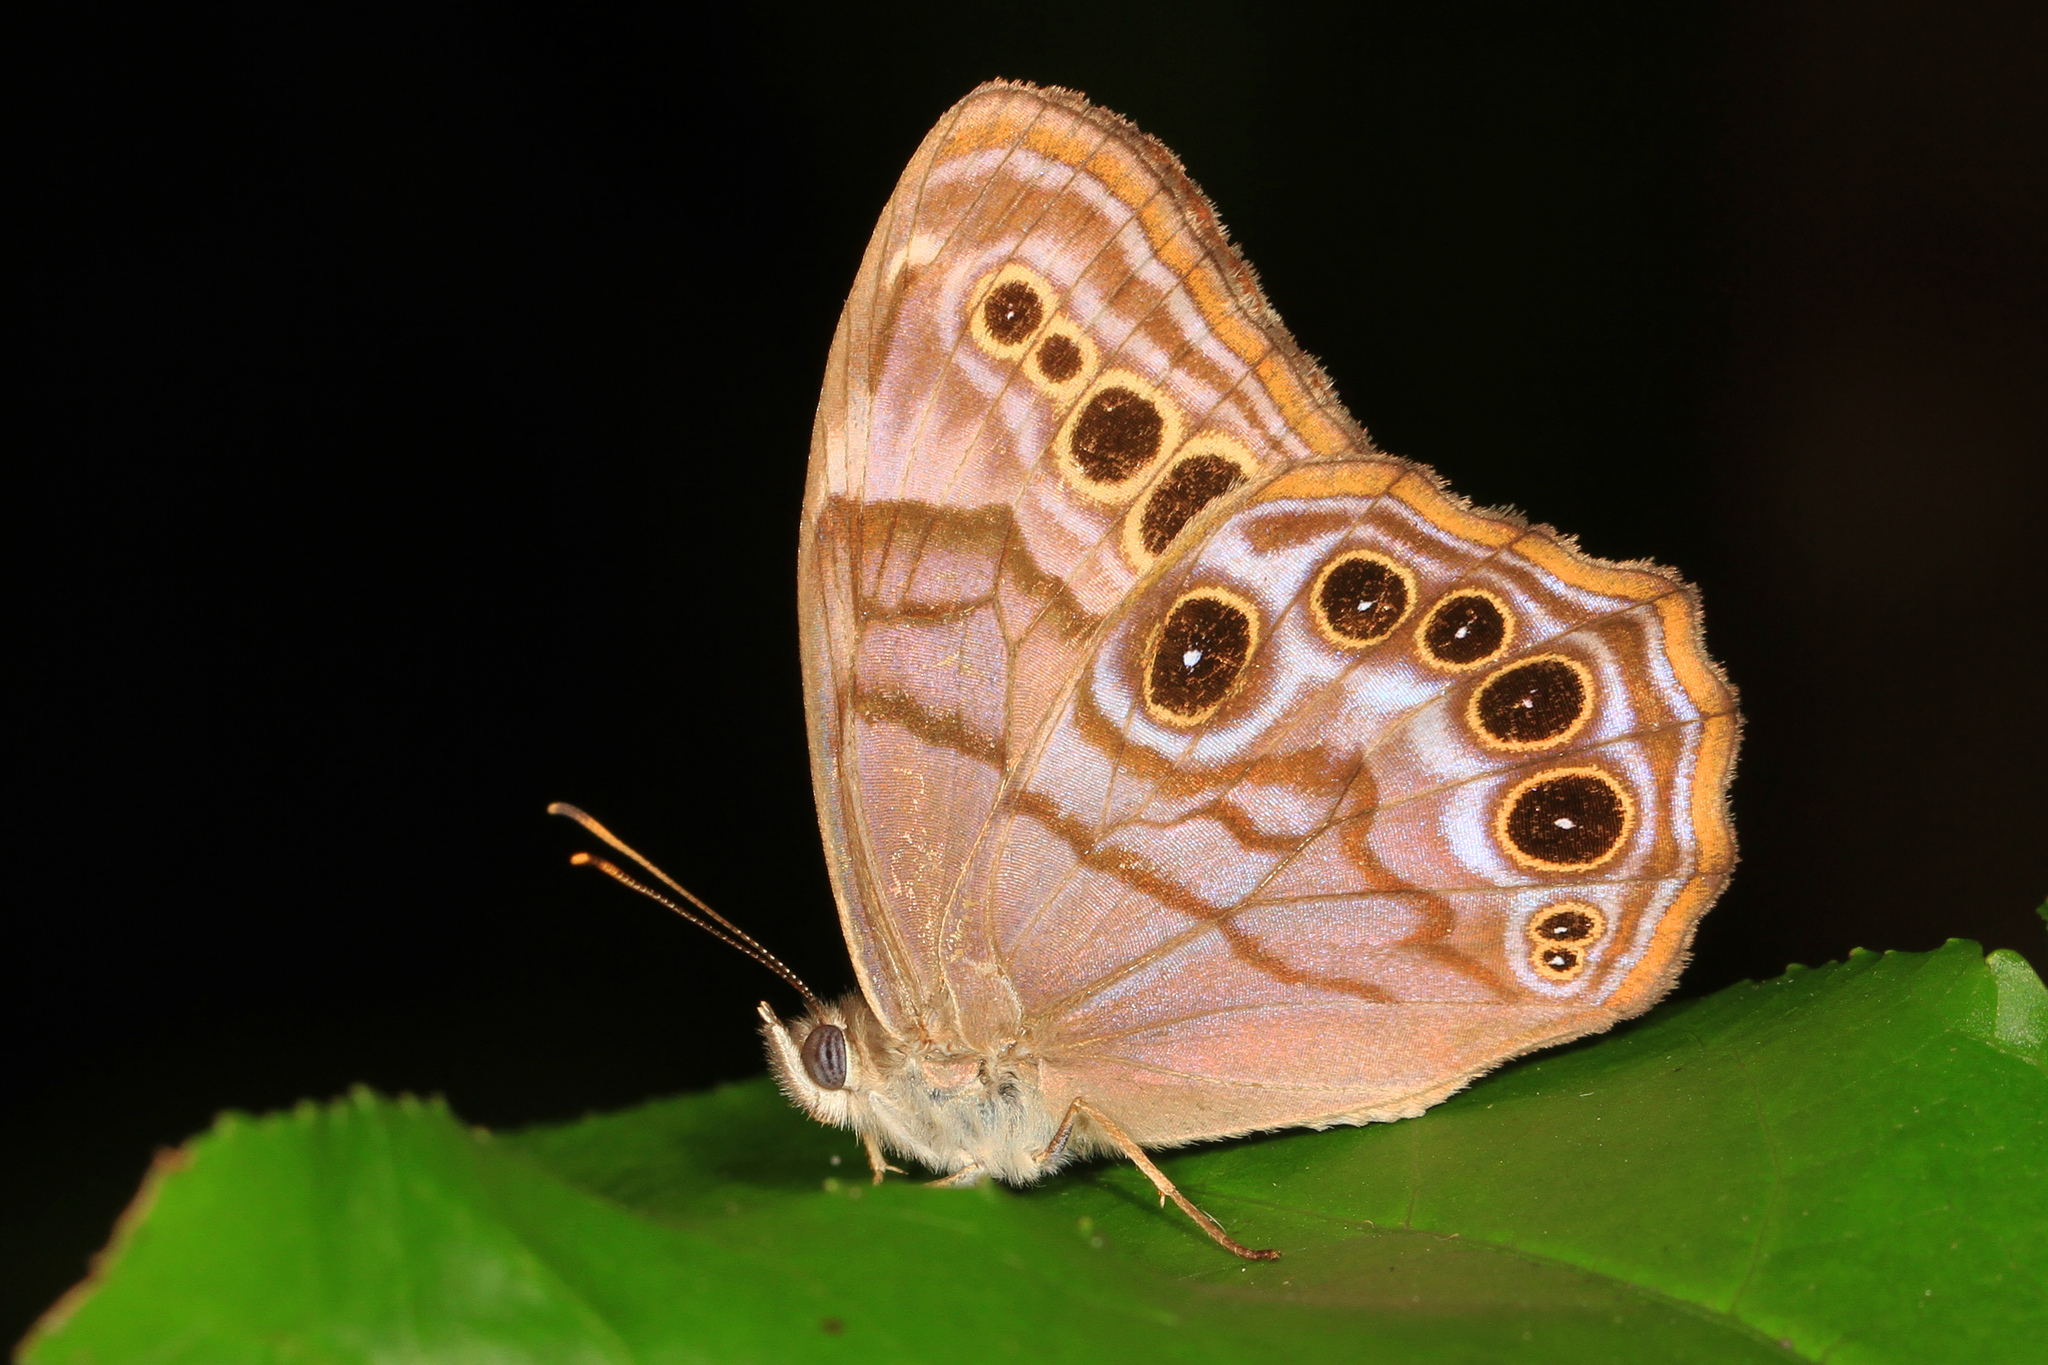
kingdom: Animalia
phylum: Arthropoda
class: Insecta
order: Lepidoptera
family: Nymphalidae
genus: Lethe
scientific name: Lethe anthedon
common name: Northern pearly-eye
